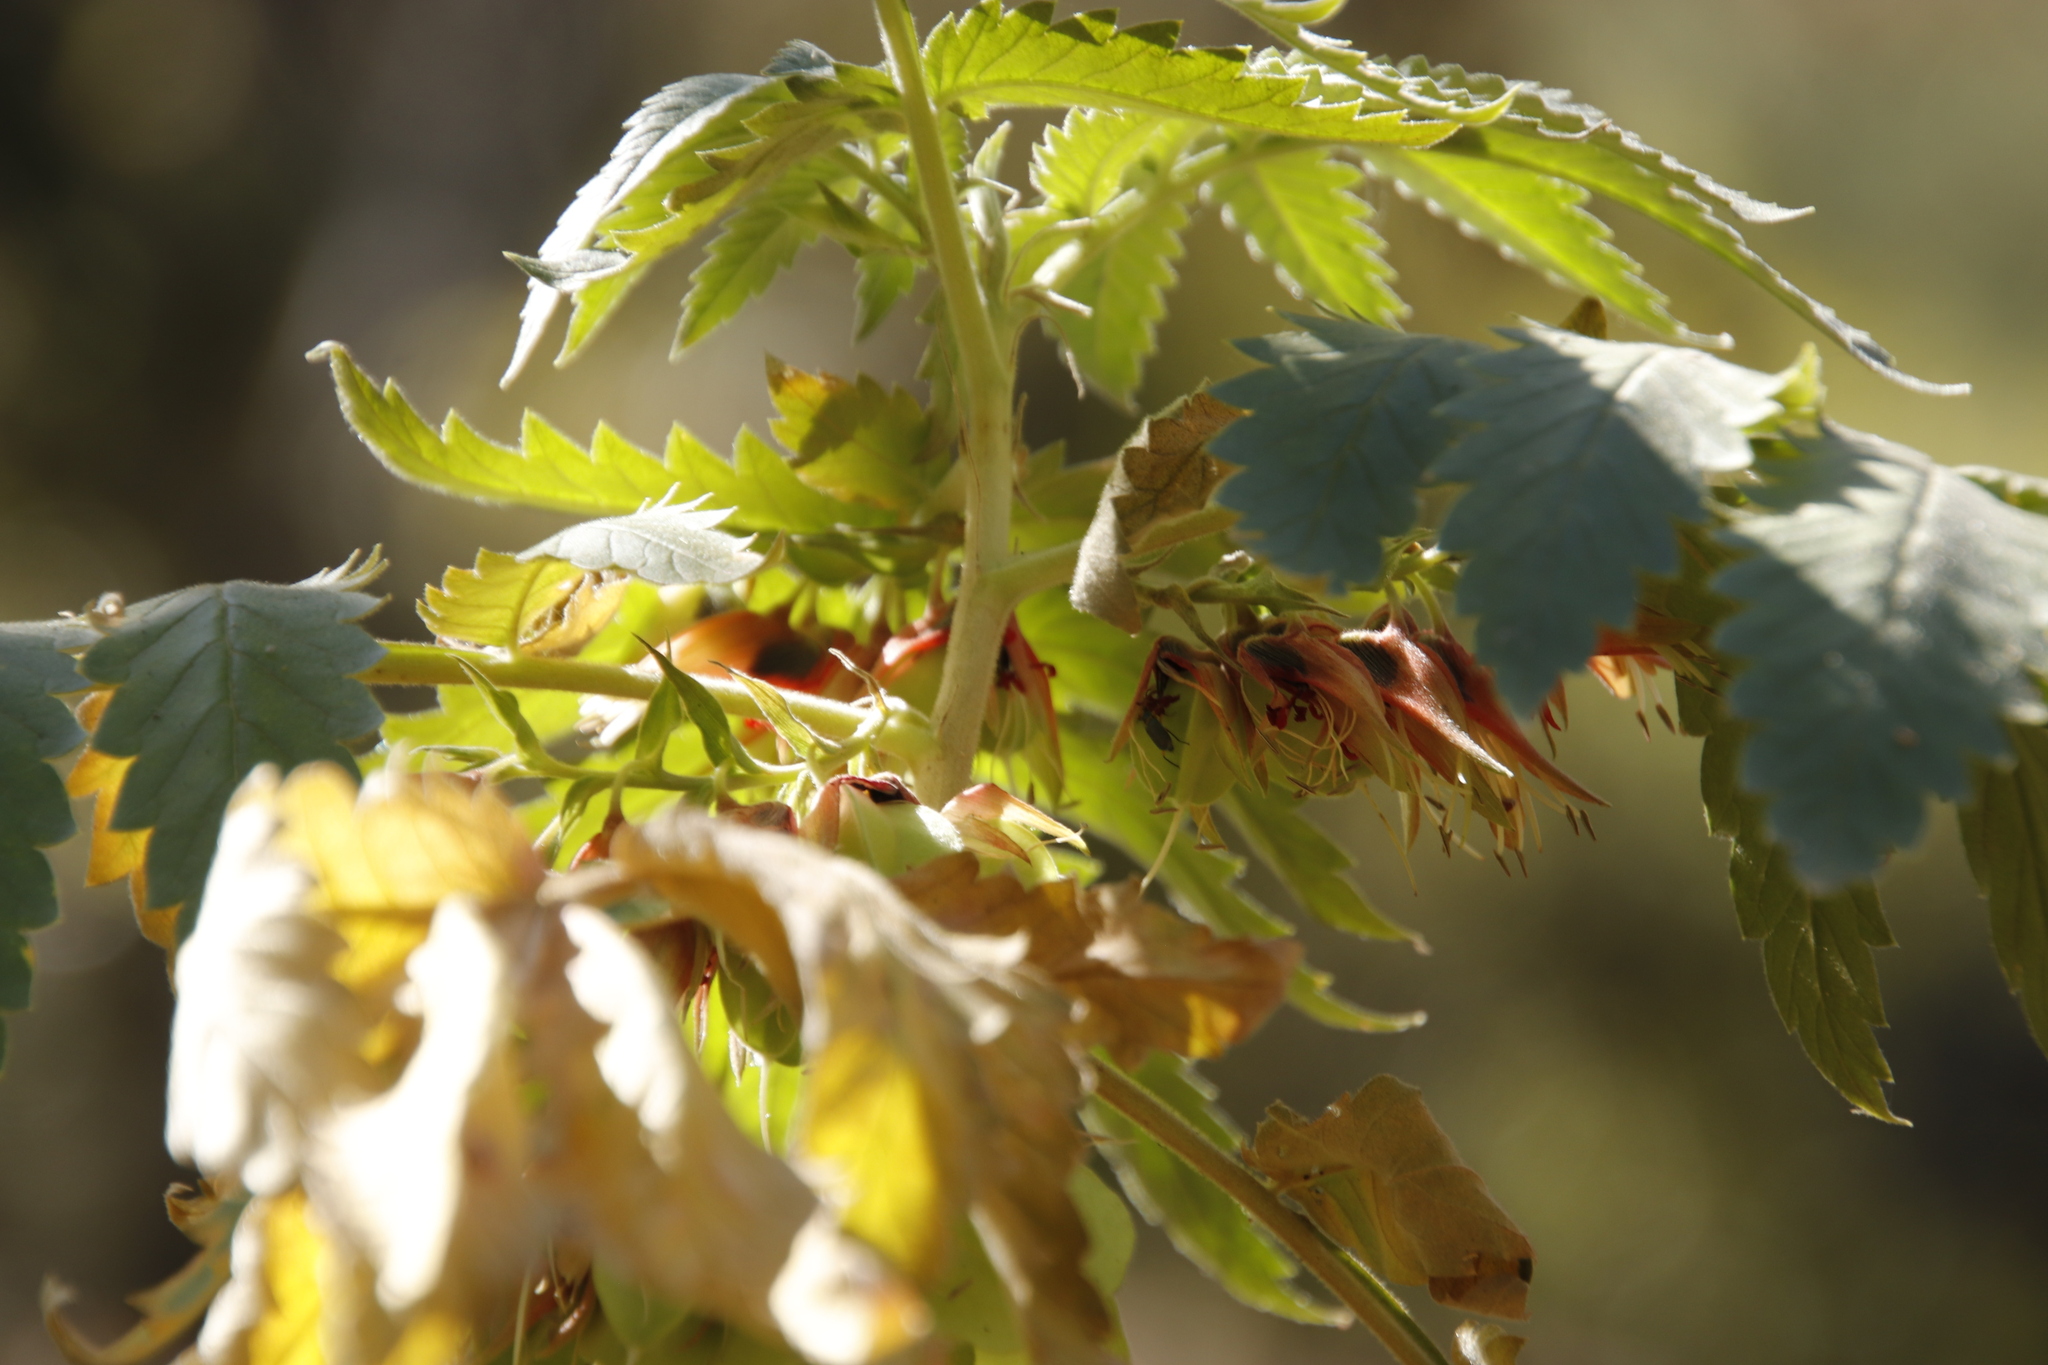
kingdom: Plantae
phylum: Tracheophyta
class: Magnoliopsida
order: Geraniales
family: Melianthaceae
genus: Melianthus
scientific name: Melianthus comosus
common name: Touch-me-not
